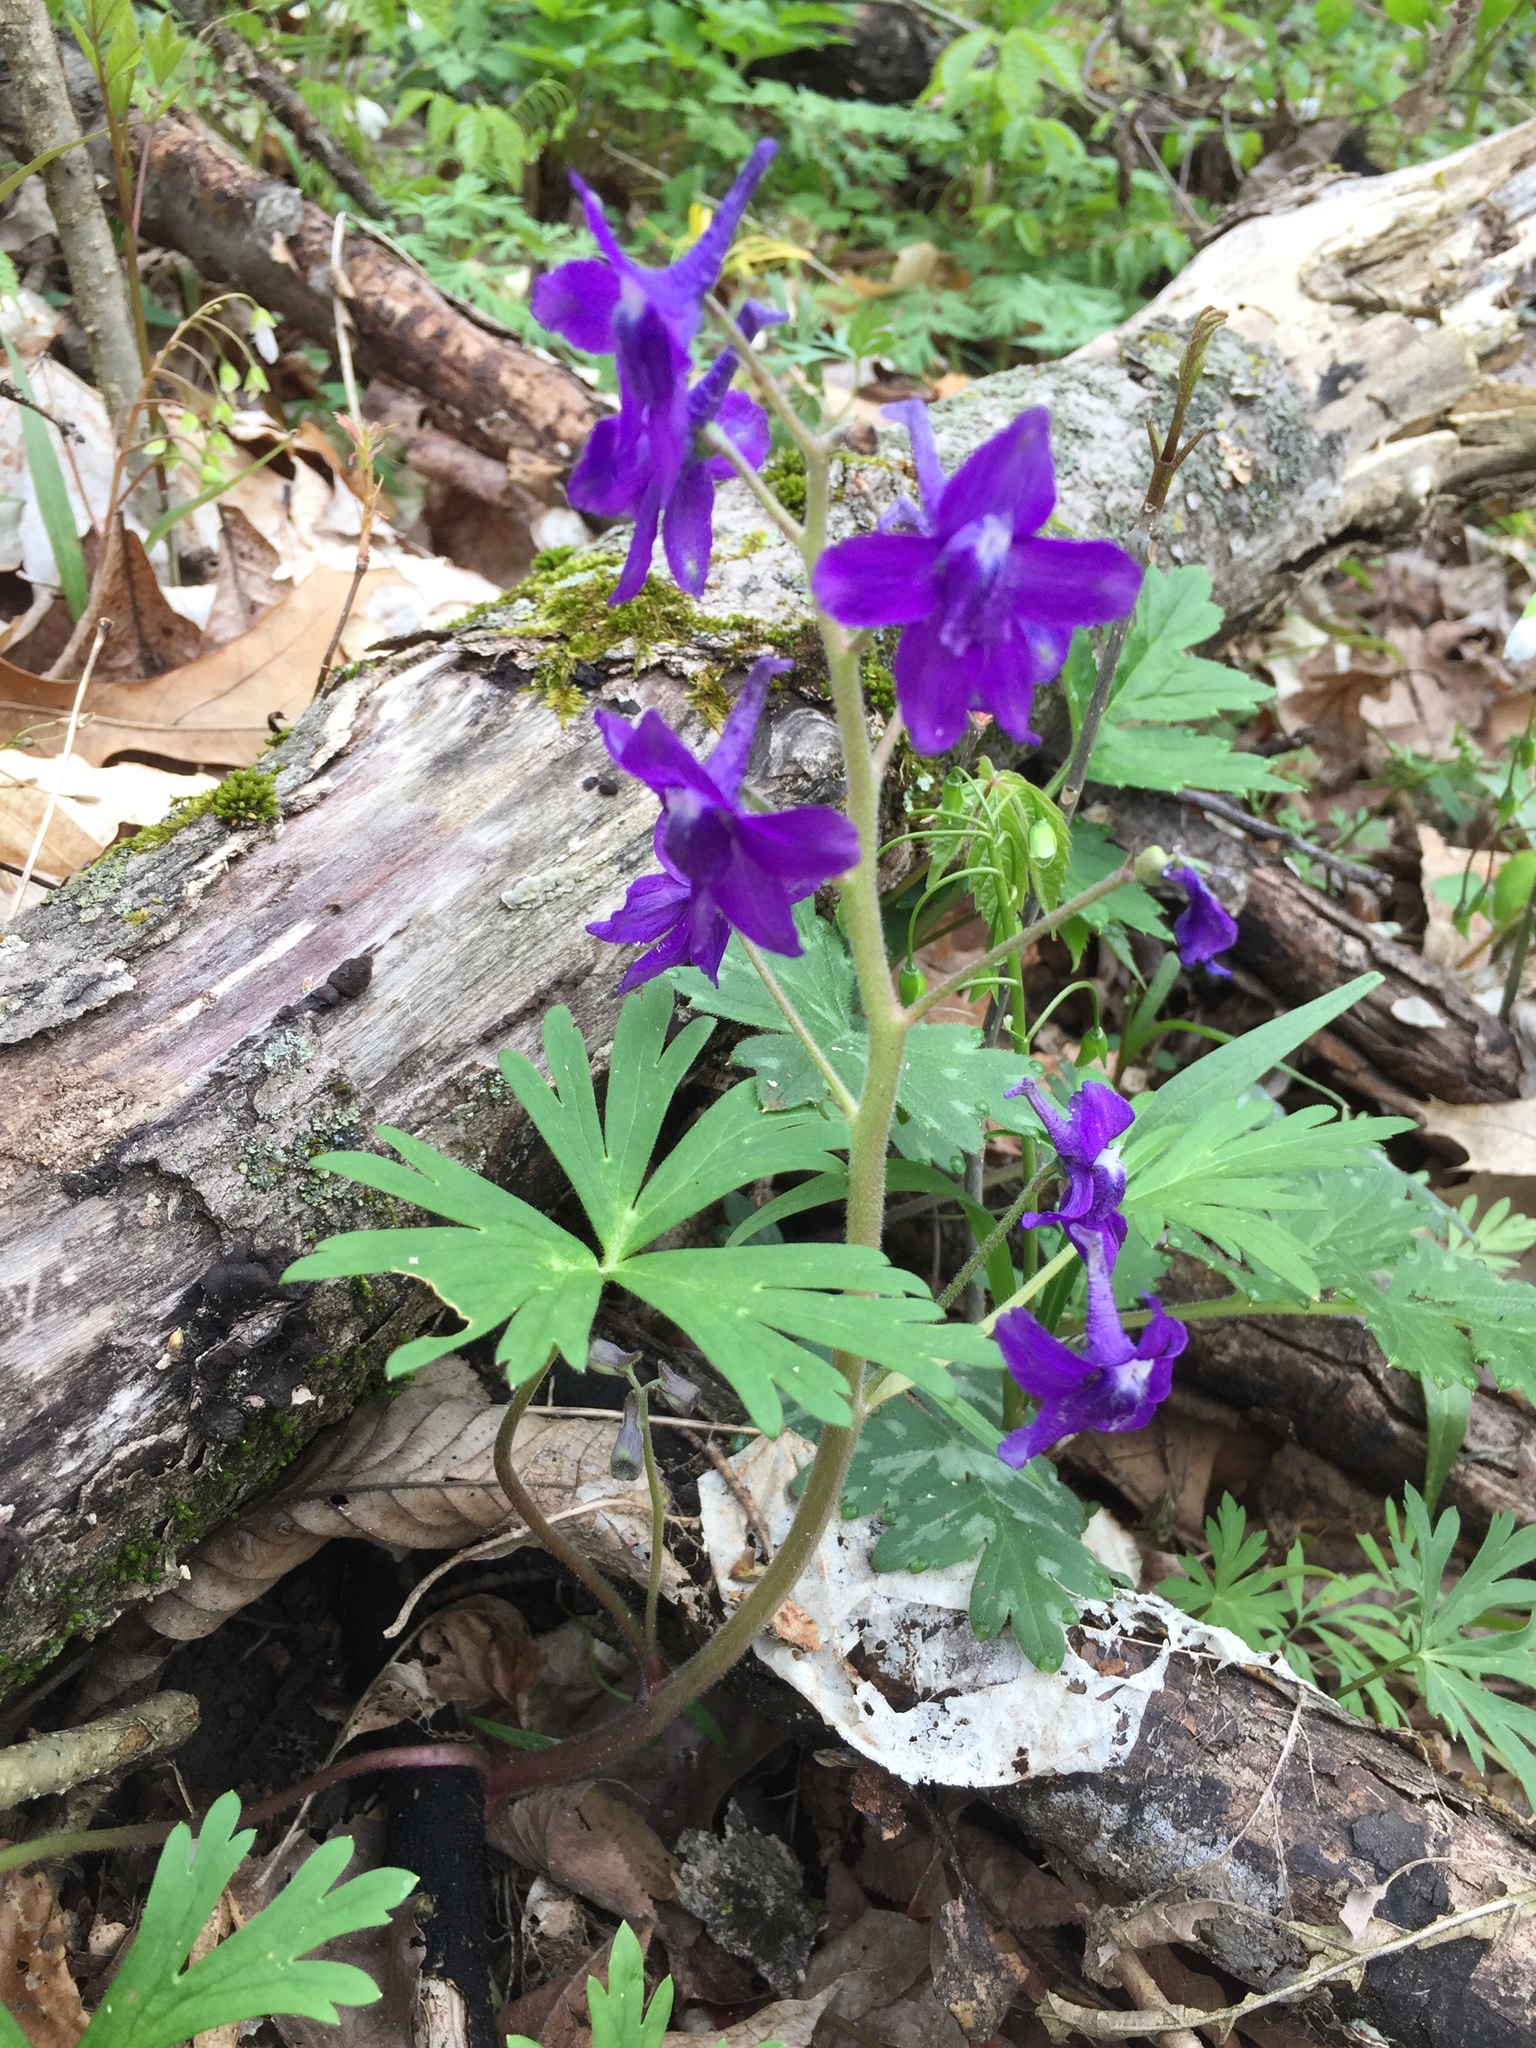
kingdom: Plantae
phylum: Tracheophyta
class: Magnoliopsida
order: Ranunculales
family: Ranunculaceae
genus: Delphinium
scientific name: Delphinium tricorne
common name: Dwarf larkspur
